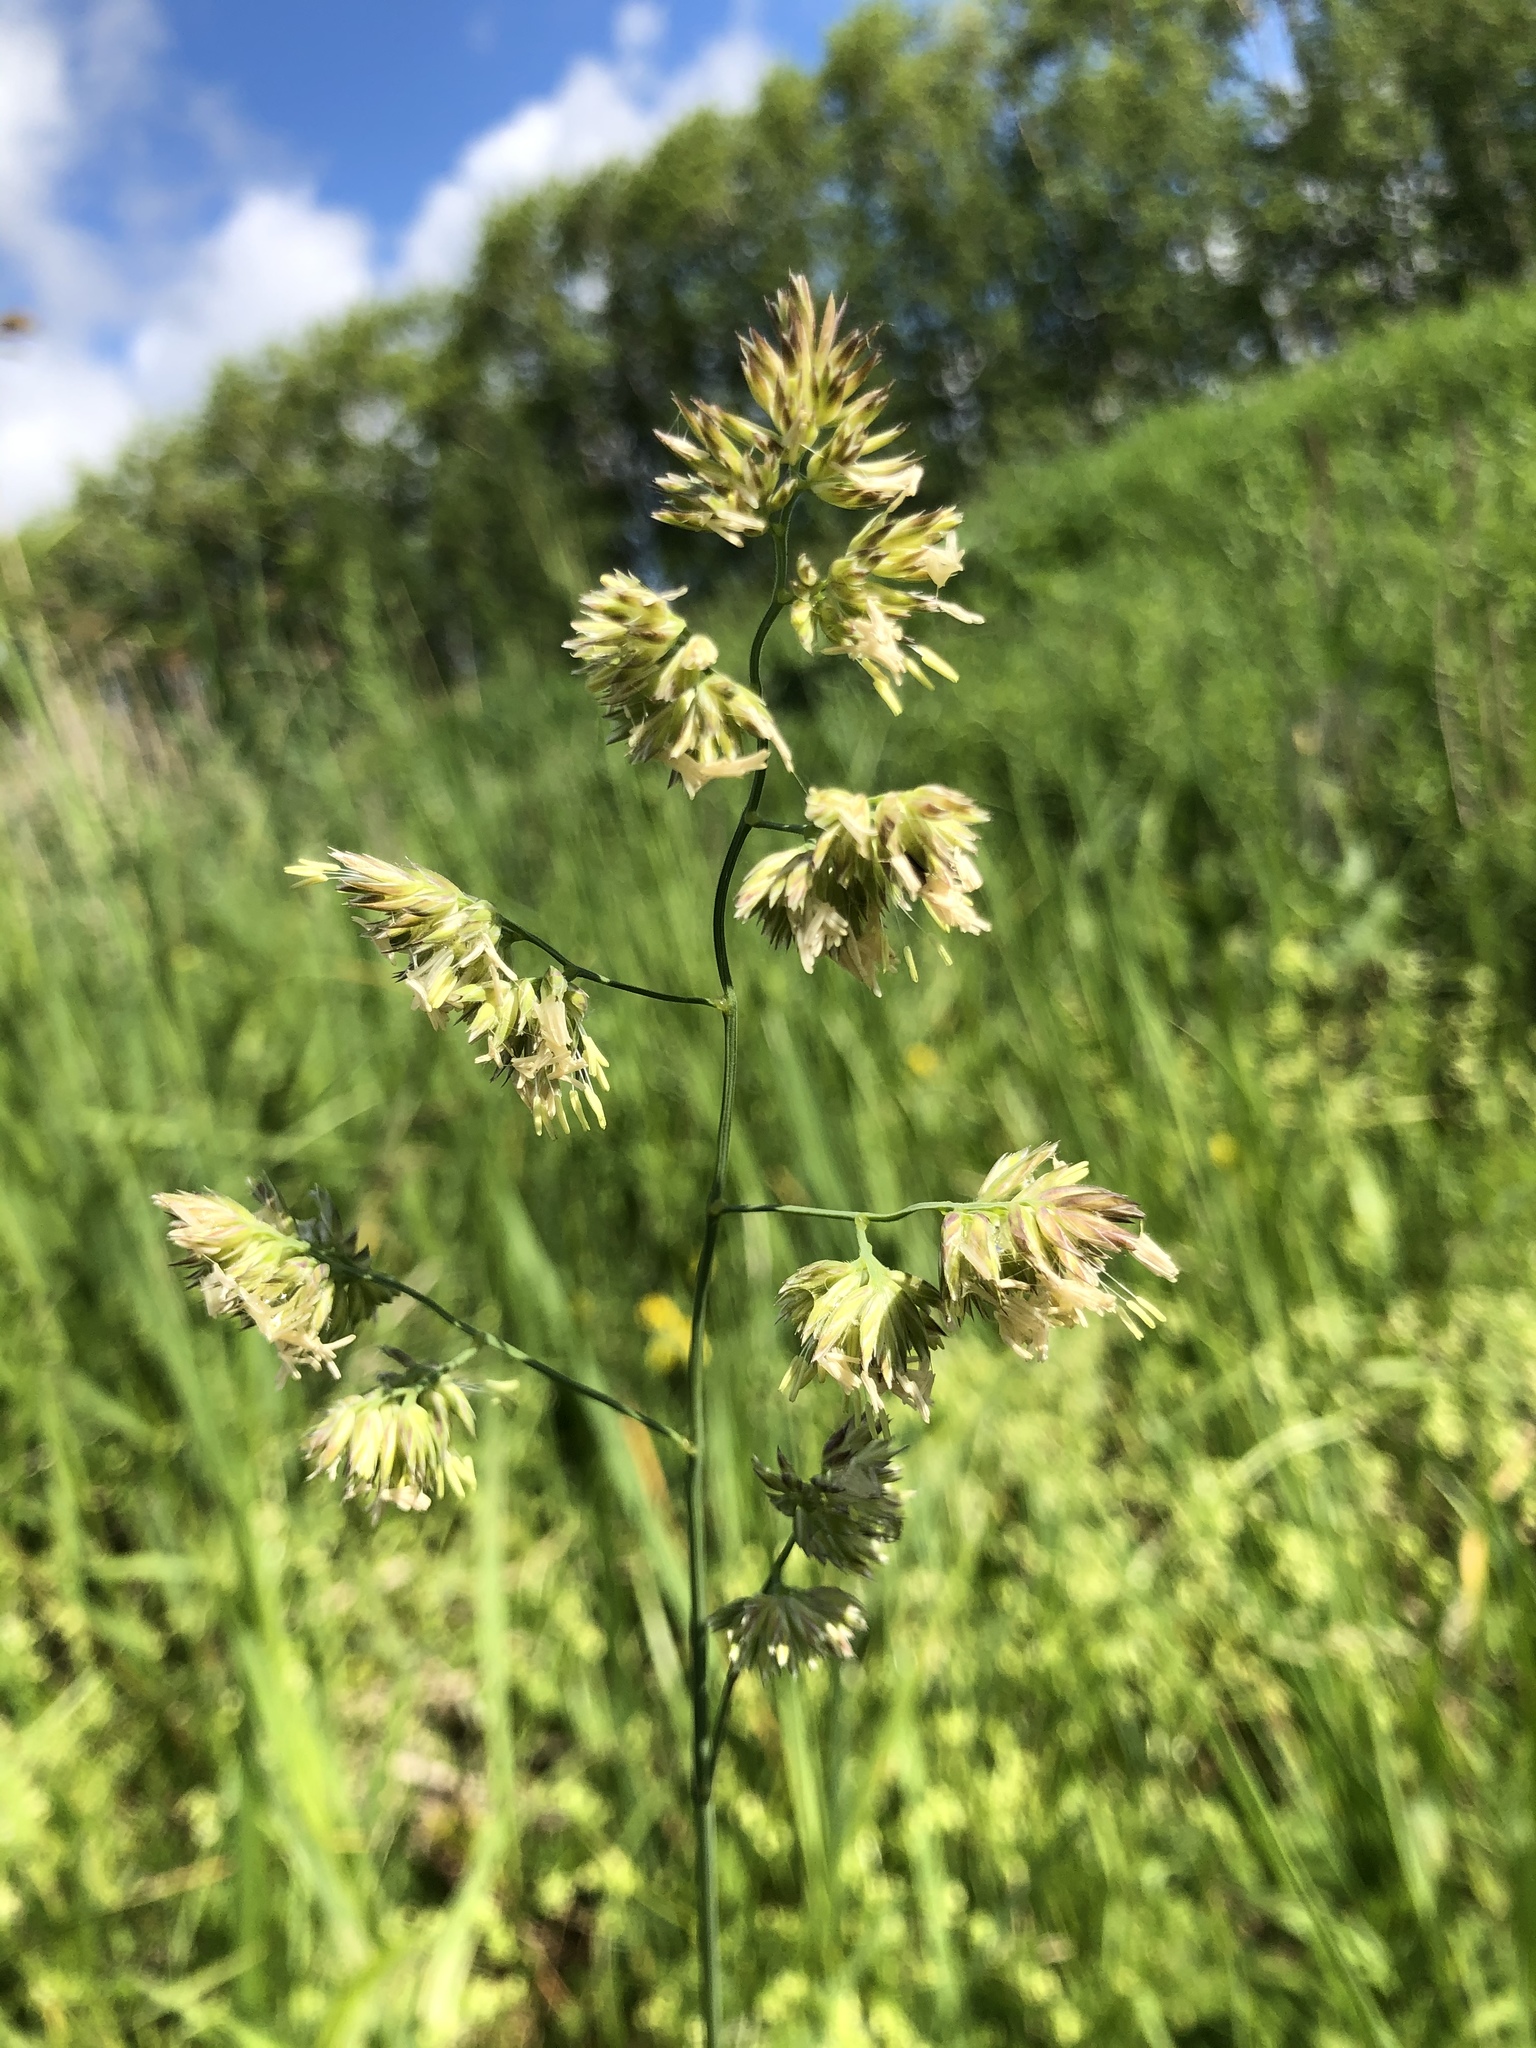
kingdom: Plantae
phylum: Tracheophyta
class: Liliopsida
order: Poales
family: Poaceae
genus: Dactylis
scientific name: Dactylis glomerata
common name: Orchardgrass
